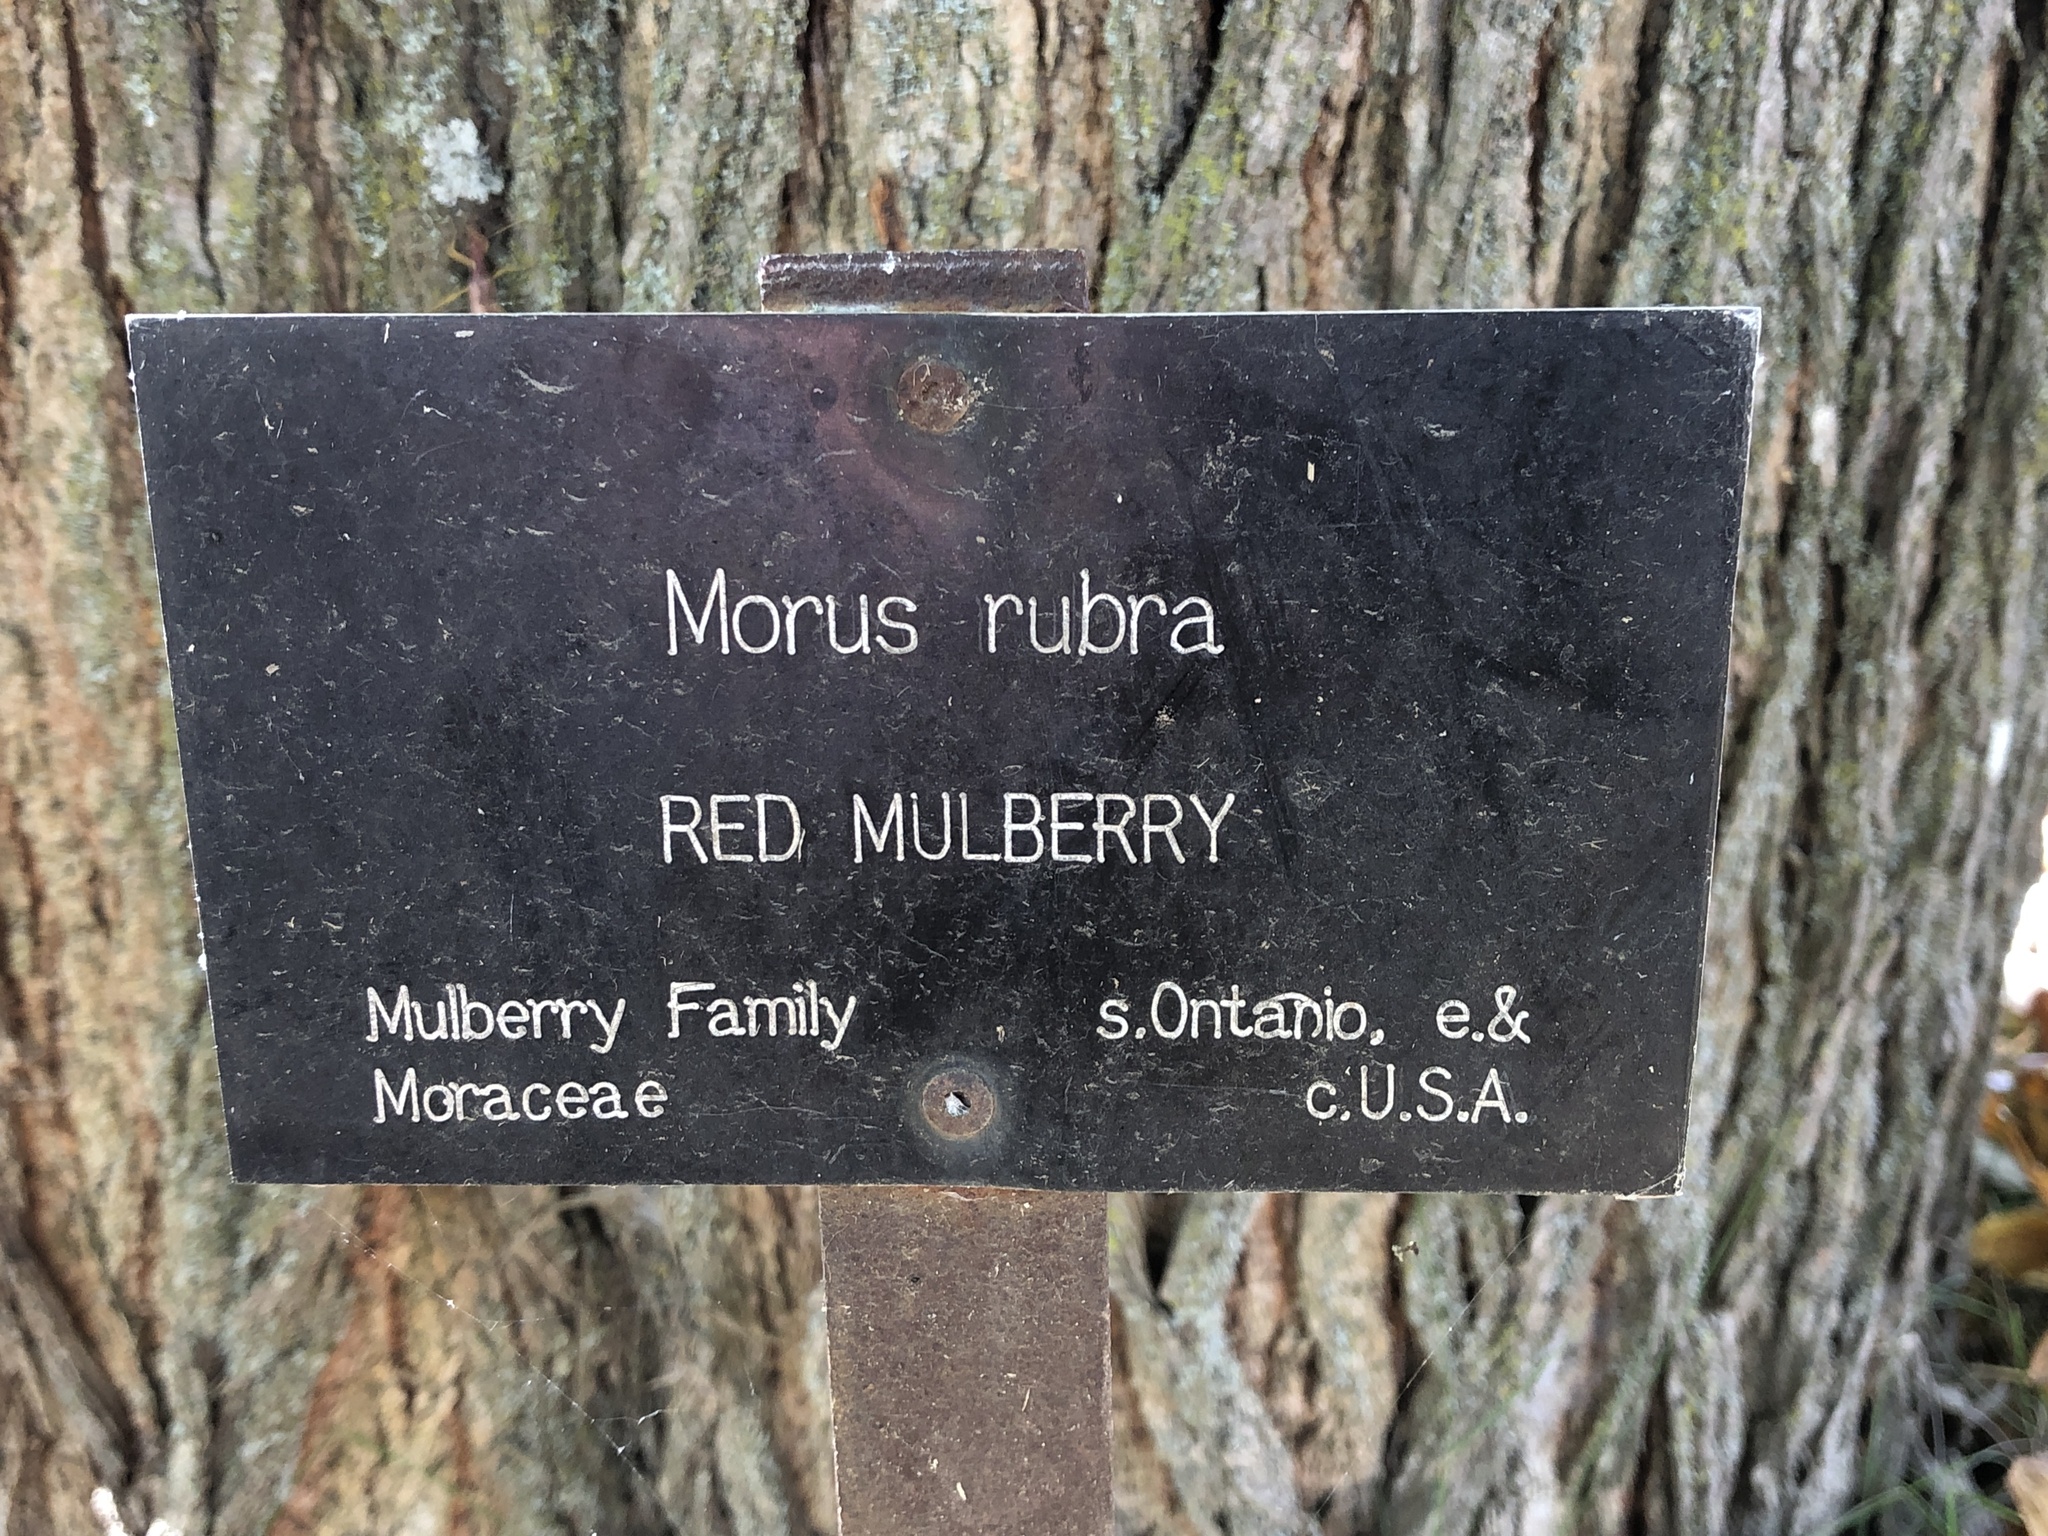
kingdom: Plantae
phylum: Tracheophyta
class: Magnoliopsida
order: Rosales
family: Moraceae
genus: Morus
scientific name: Morus alba
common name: White mulberry
